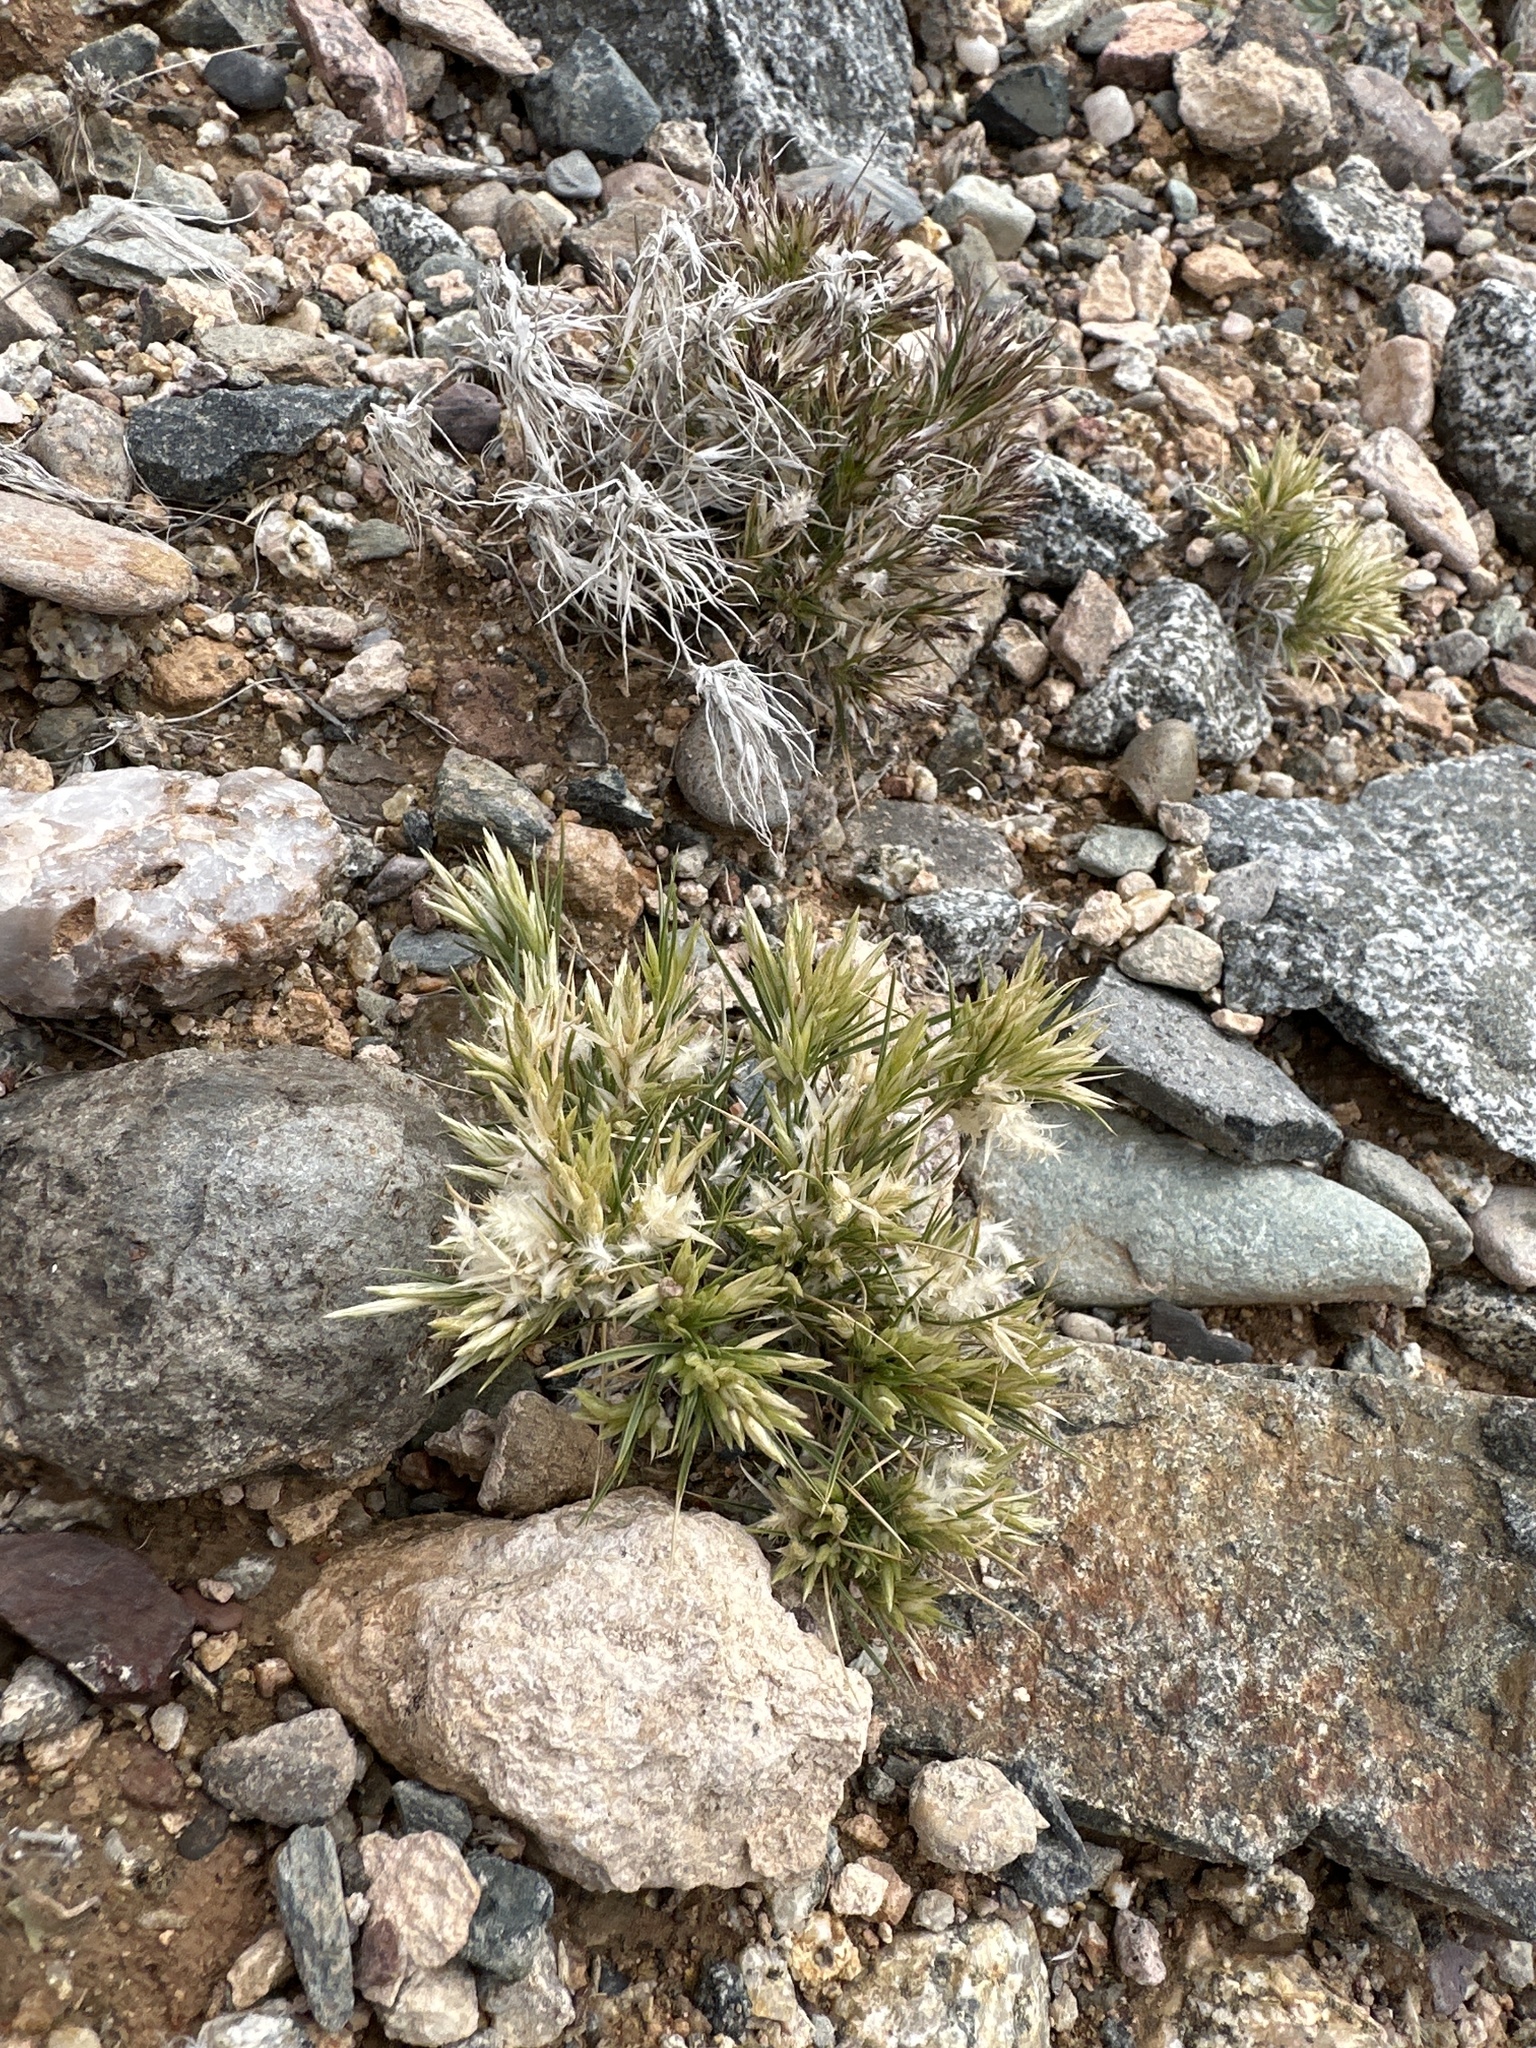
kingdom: Plantae
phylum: Tracheophyta
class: Liliopsida
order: Poales
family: Poaceae
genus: Dasyochloa
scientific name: Dasyochloa pulchella
